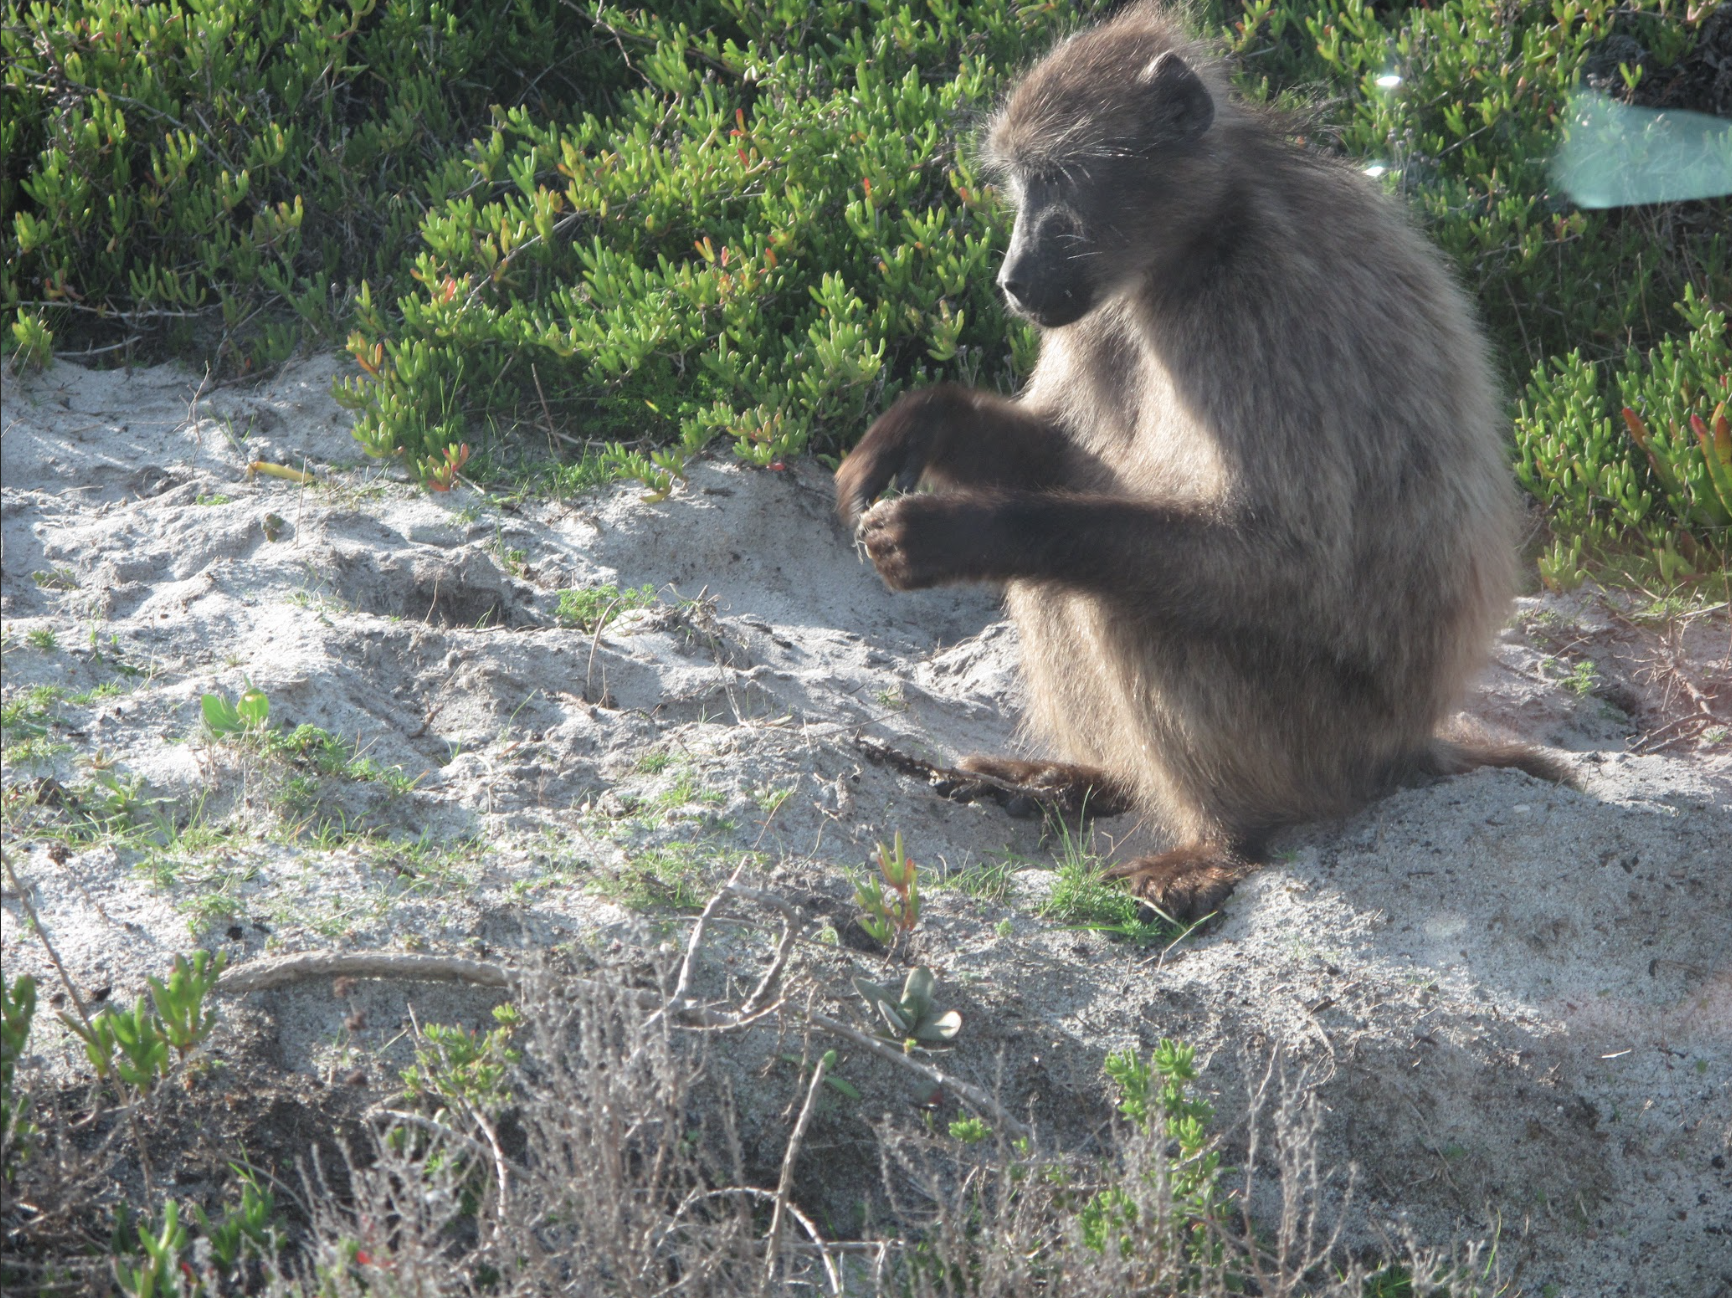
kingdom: Animalia
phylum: Chordata
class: Mammalia
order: Primates
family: Cercopithecidae
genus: Papio
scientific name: Papio ursinus
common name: Chacma baboon
